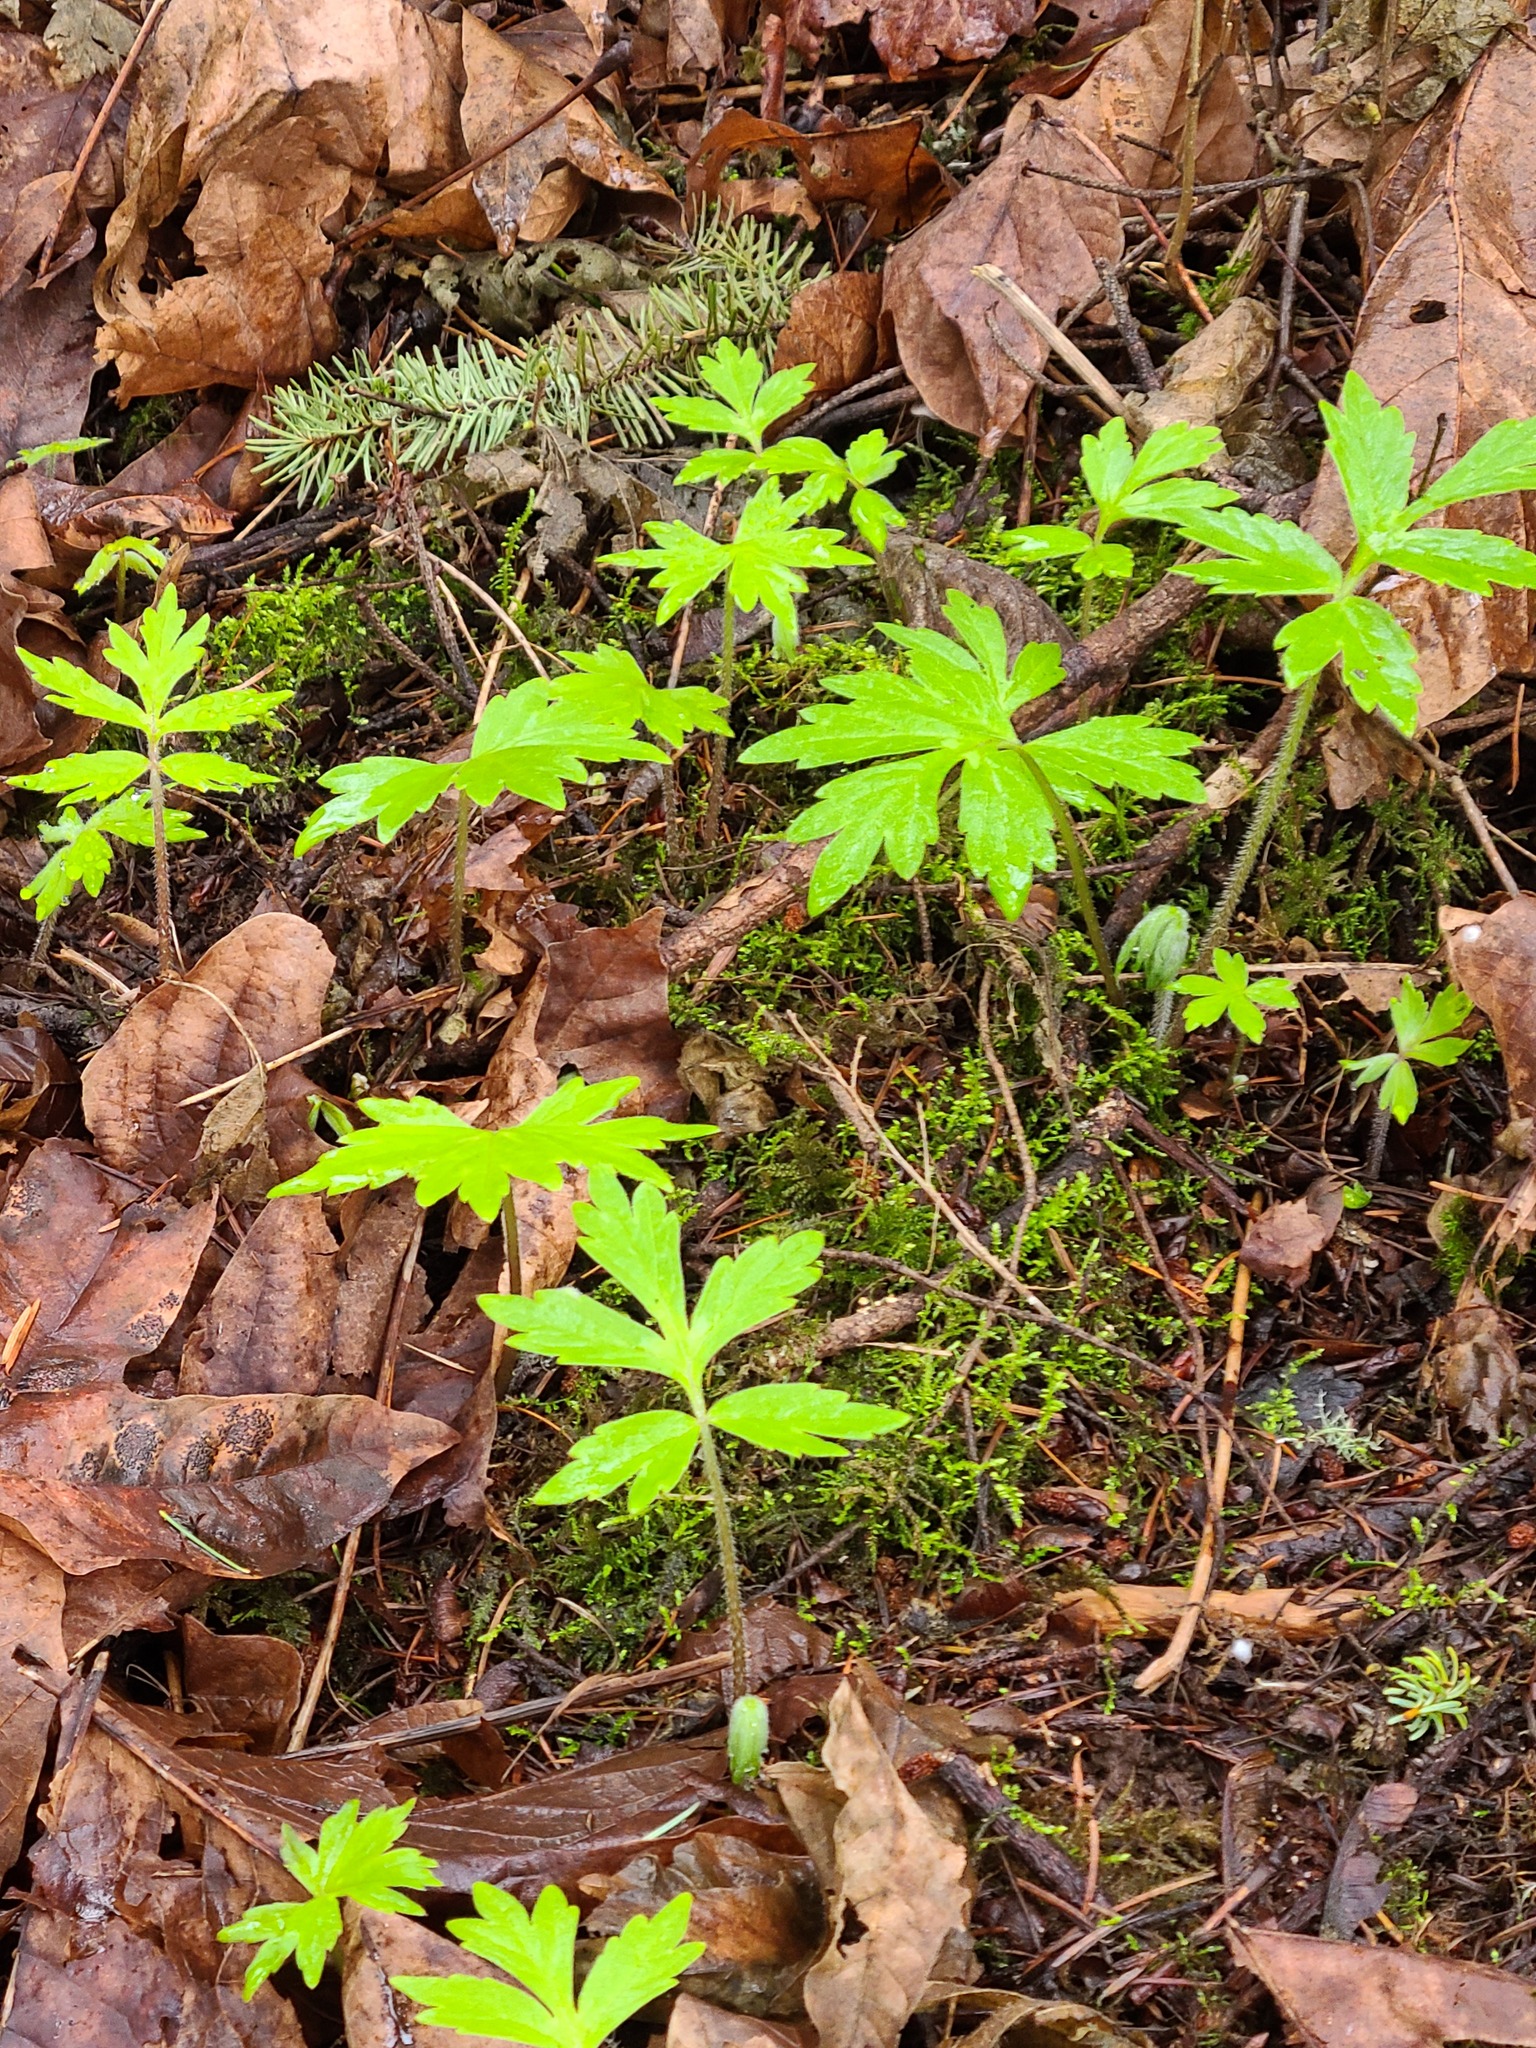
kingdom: Plantae
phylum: Tracheophyta
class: Magnoliopsida
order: Boraginales
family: Hydrophyllaceae
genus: Hydrophyllum
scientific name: Hydrophyllum tenuipes
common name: Pacific waterleaf
